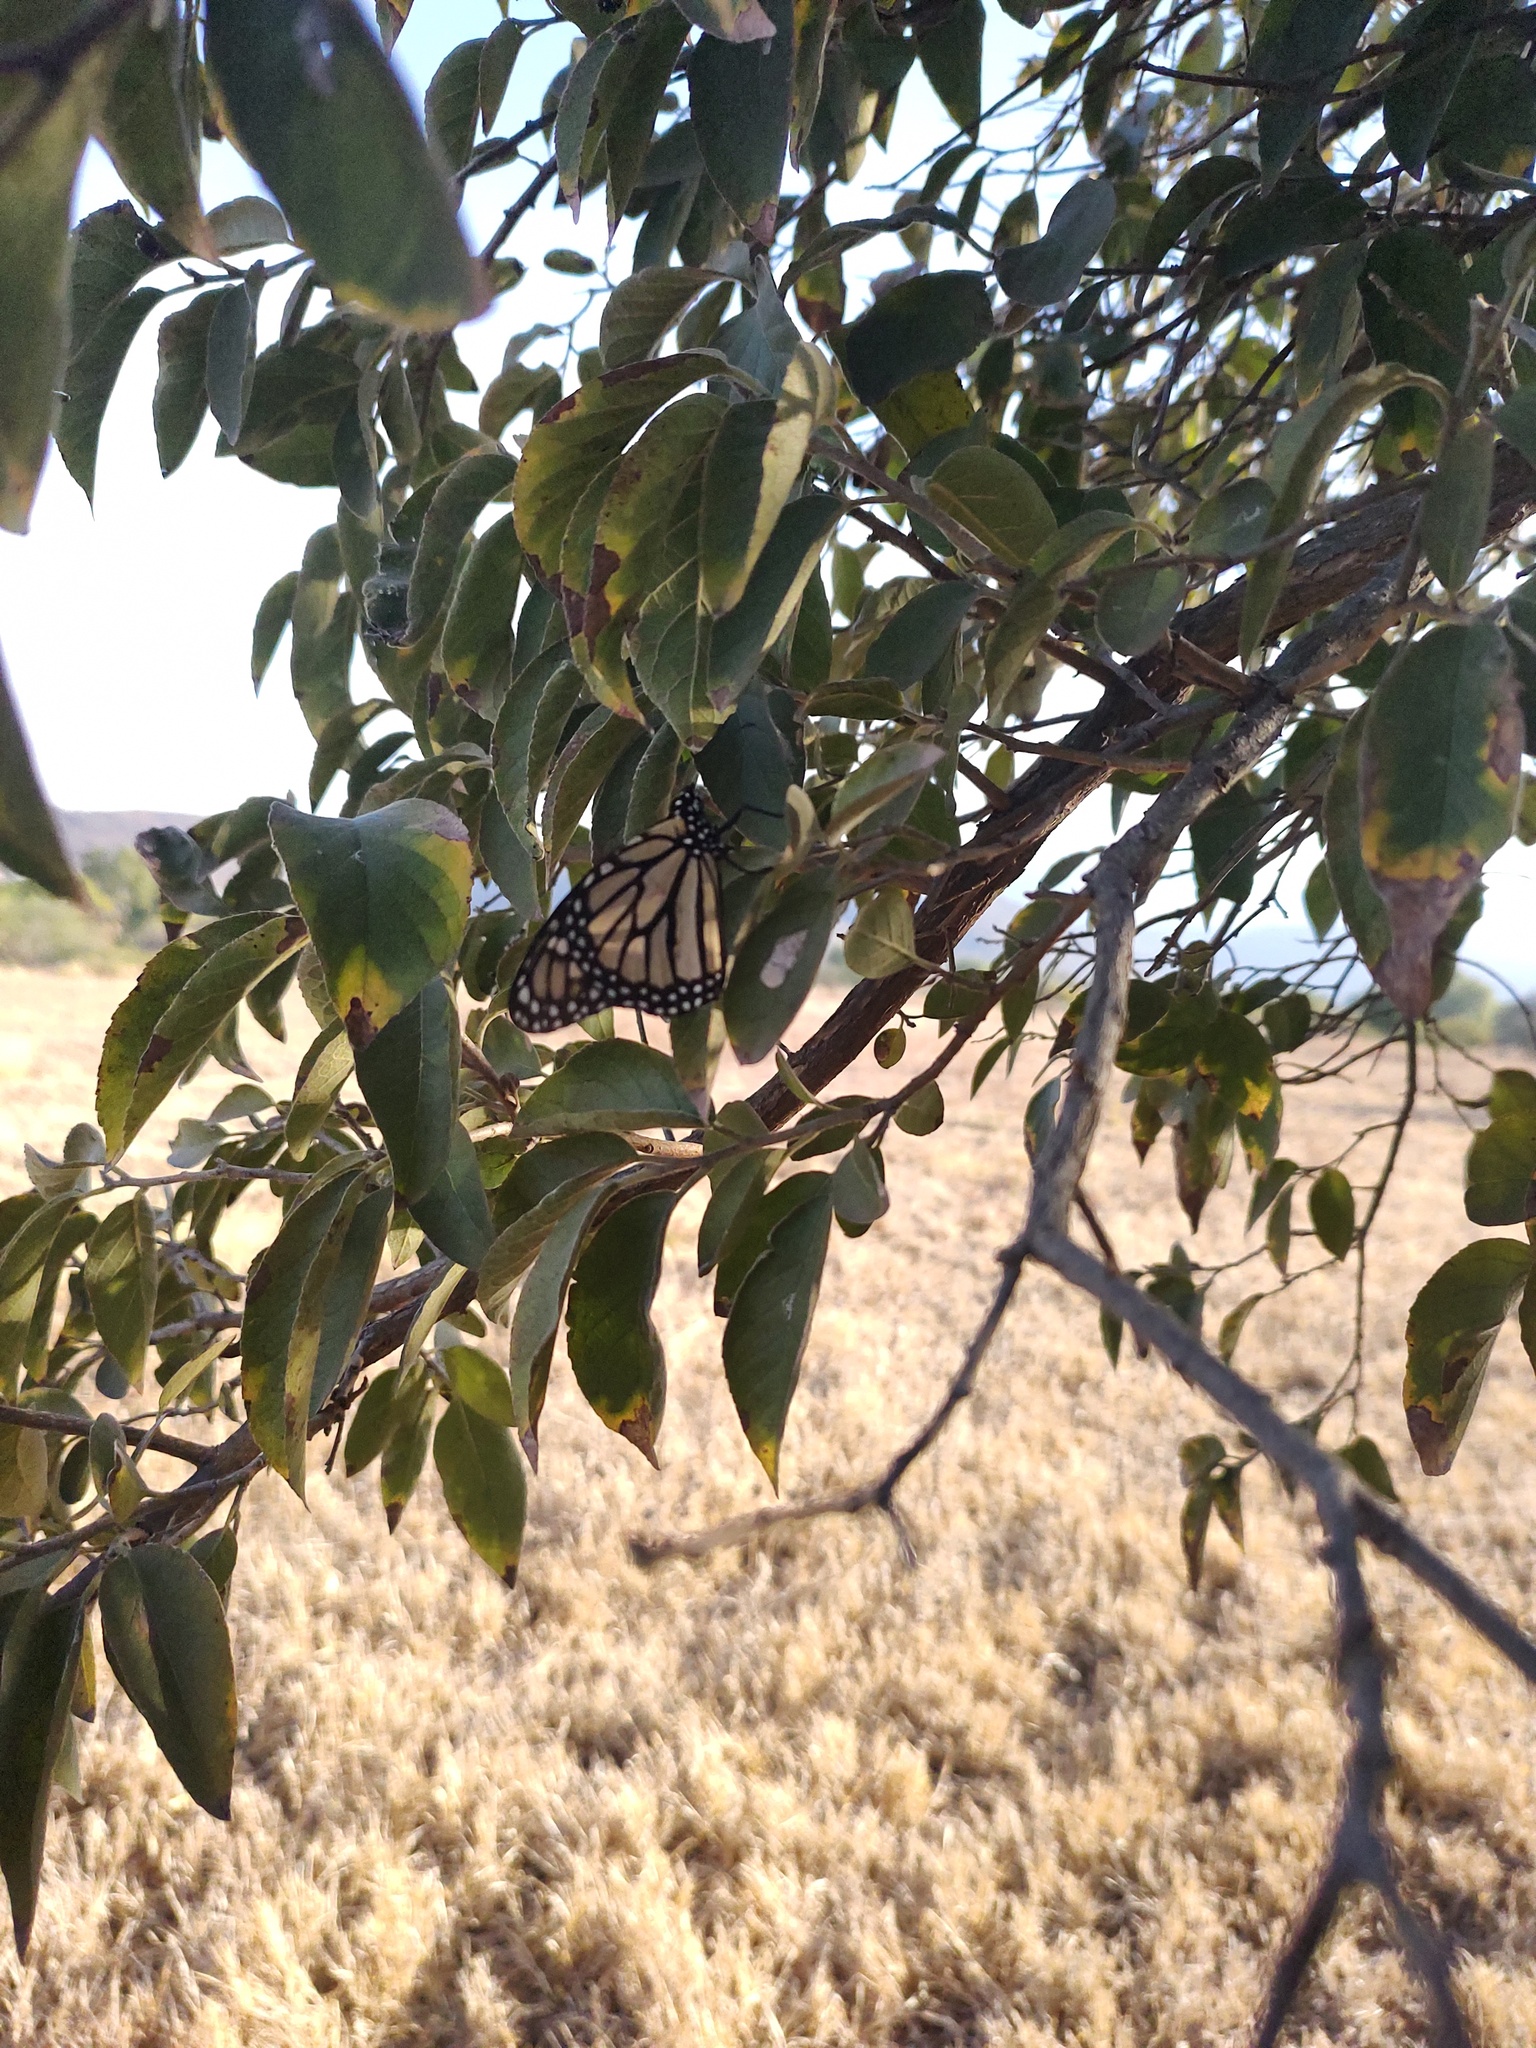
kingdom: Animalia
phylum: Arthropoda
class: Insecta
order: Lepidoptera
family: Nymphalidae
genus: Danaus
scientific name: Danaus plexippus
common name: Monarch
